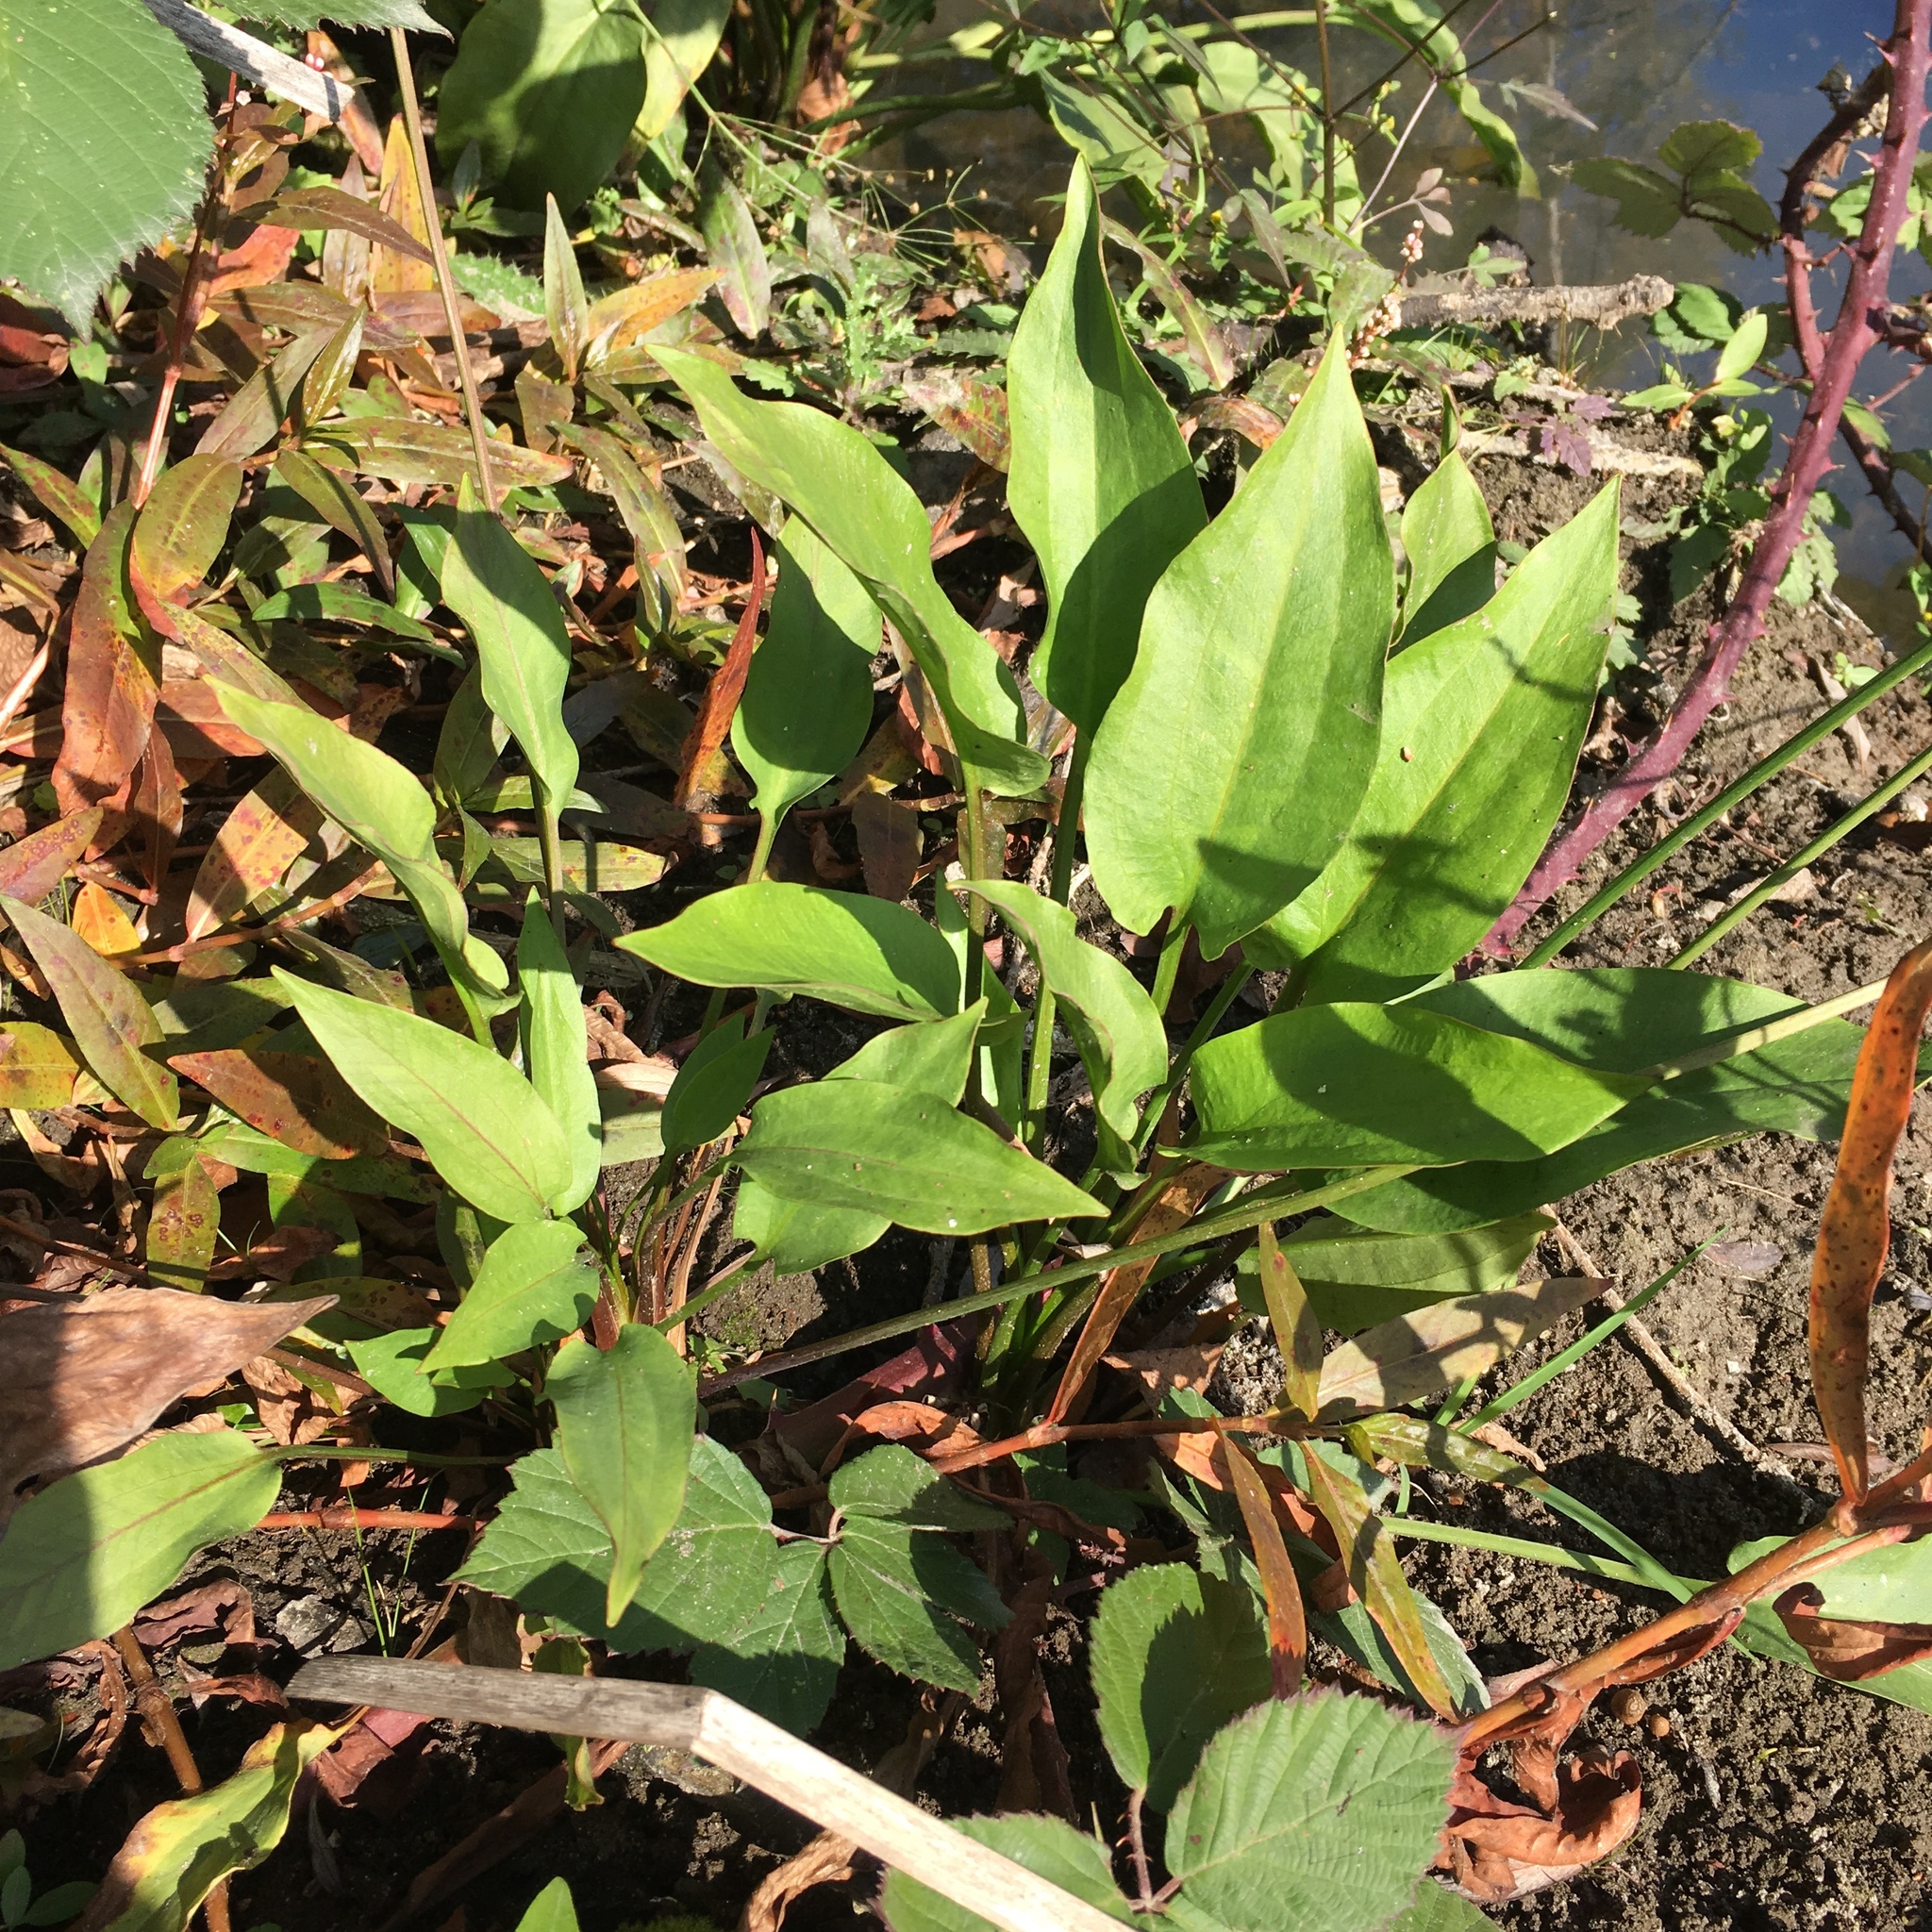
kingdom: Plantae
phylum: Tracheophyta
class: Liliopsida
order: Alismatales
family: Alismataceae
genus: Alisma
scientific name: Alisma triviale
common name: Northern water-plantain
